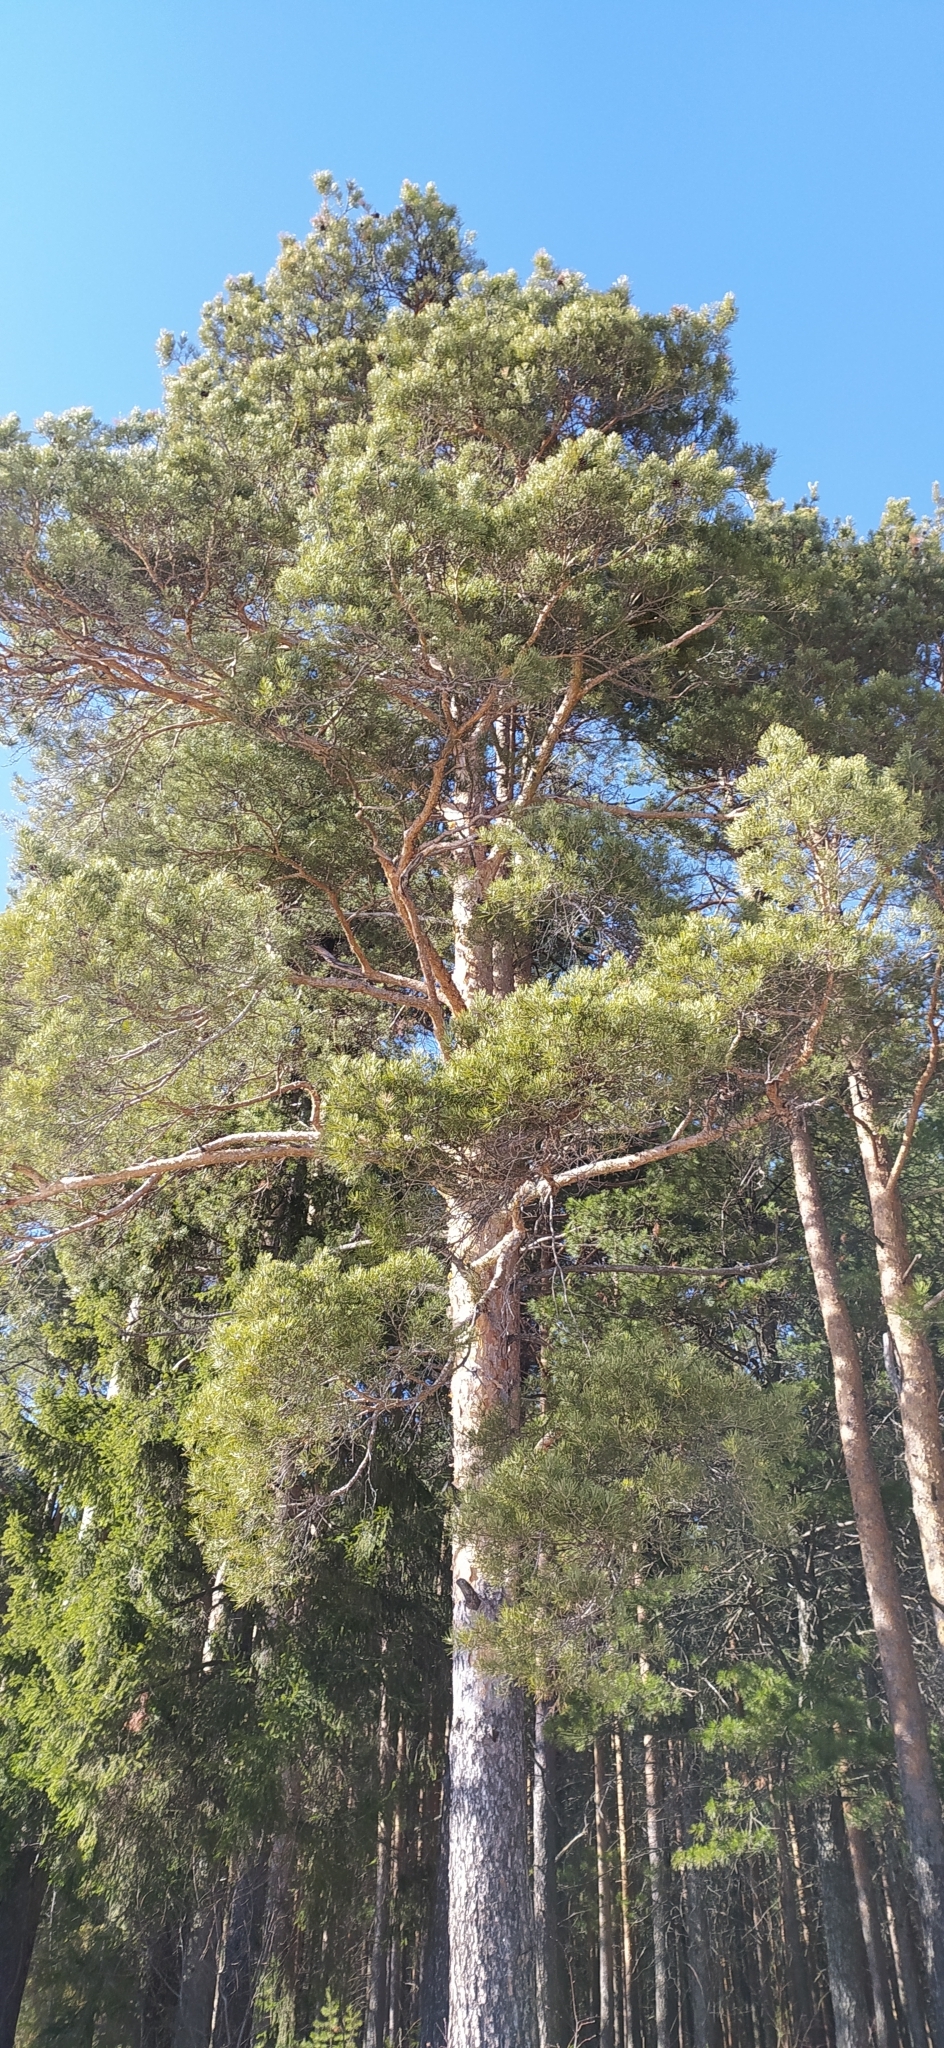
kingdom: Plantae
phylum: Tracheophyta
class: Pinopsida
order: Pinales
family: Pinaceae
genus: Pinus
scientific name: Pinus sylvestris
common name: Scots pine
